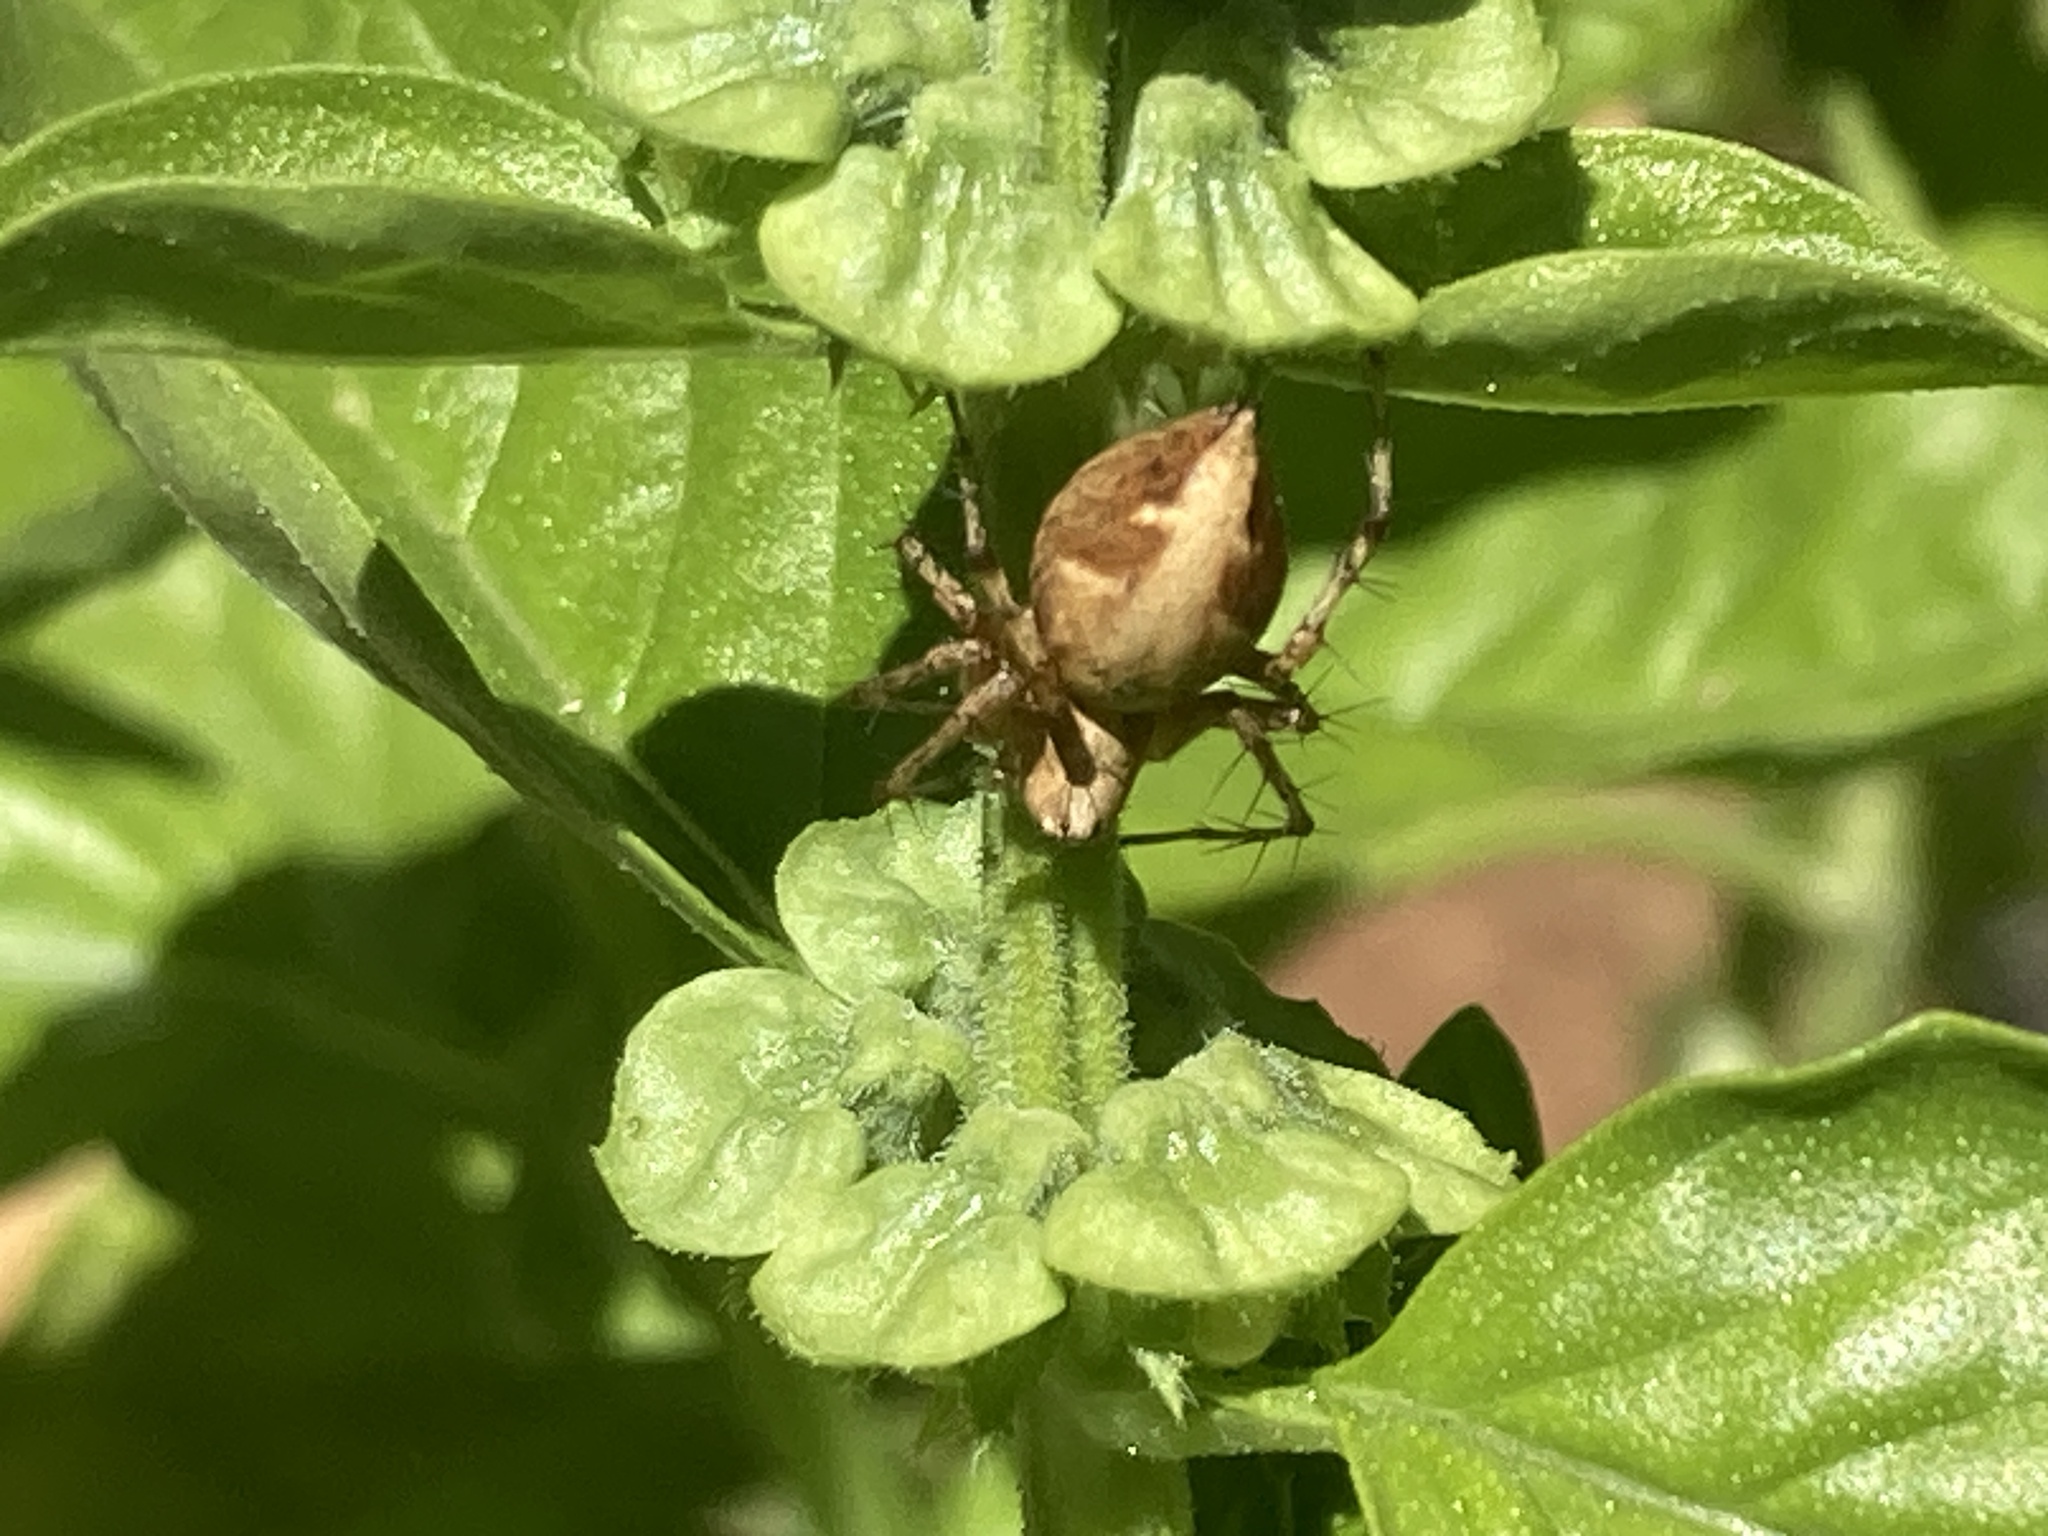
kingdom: Animalia
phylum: Arthropoda
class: Arachnida
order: Araneae
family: Oxyopidae
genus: Oxyopes
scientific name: Oxyopes scalaris
